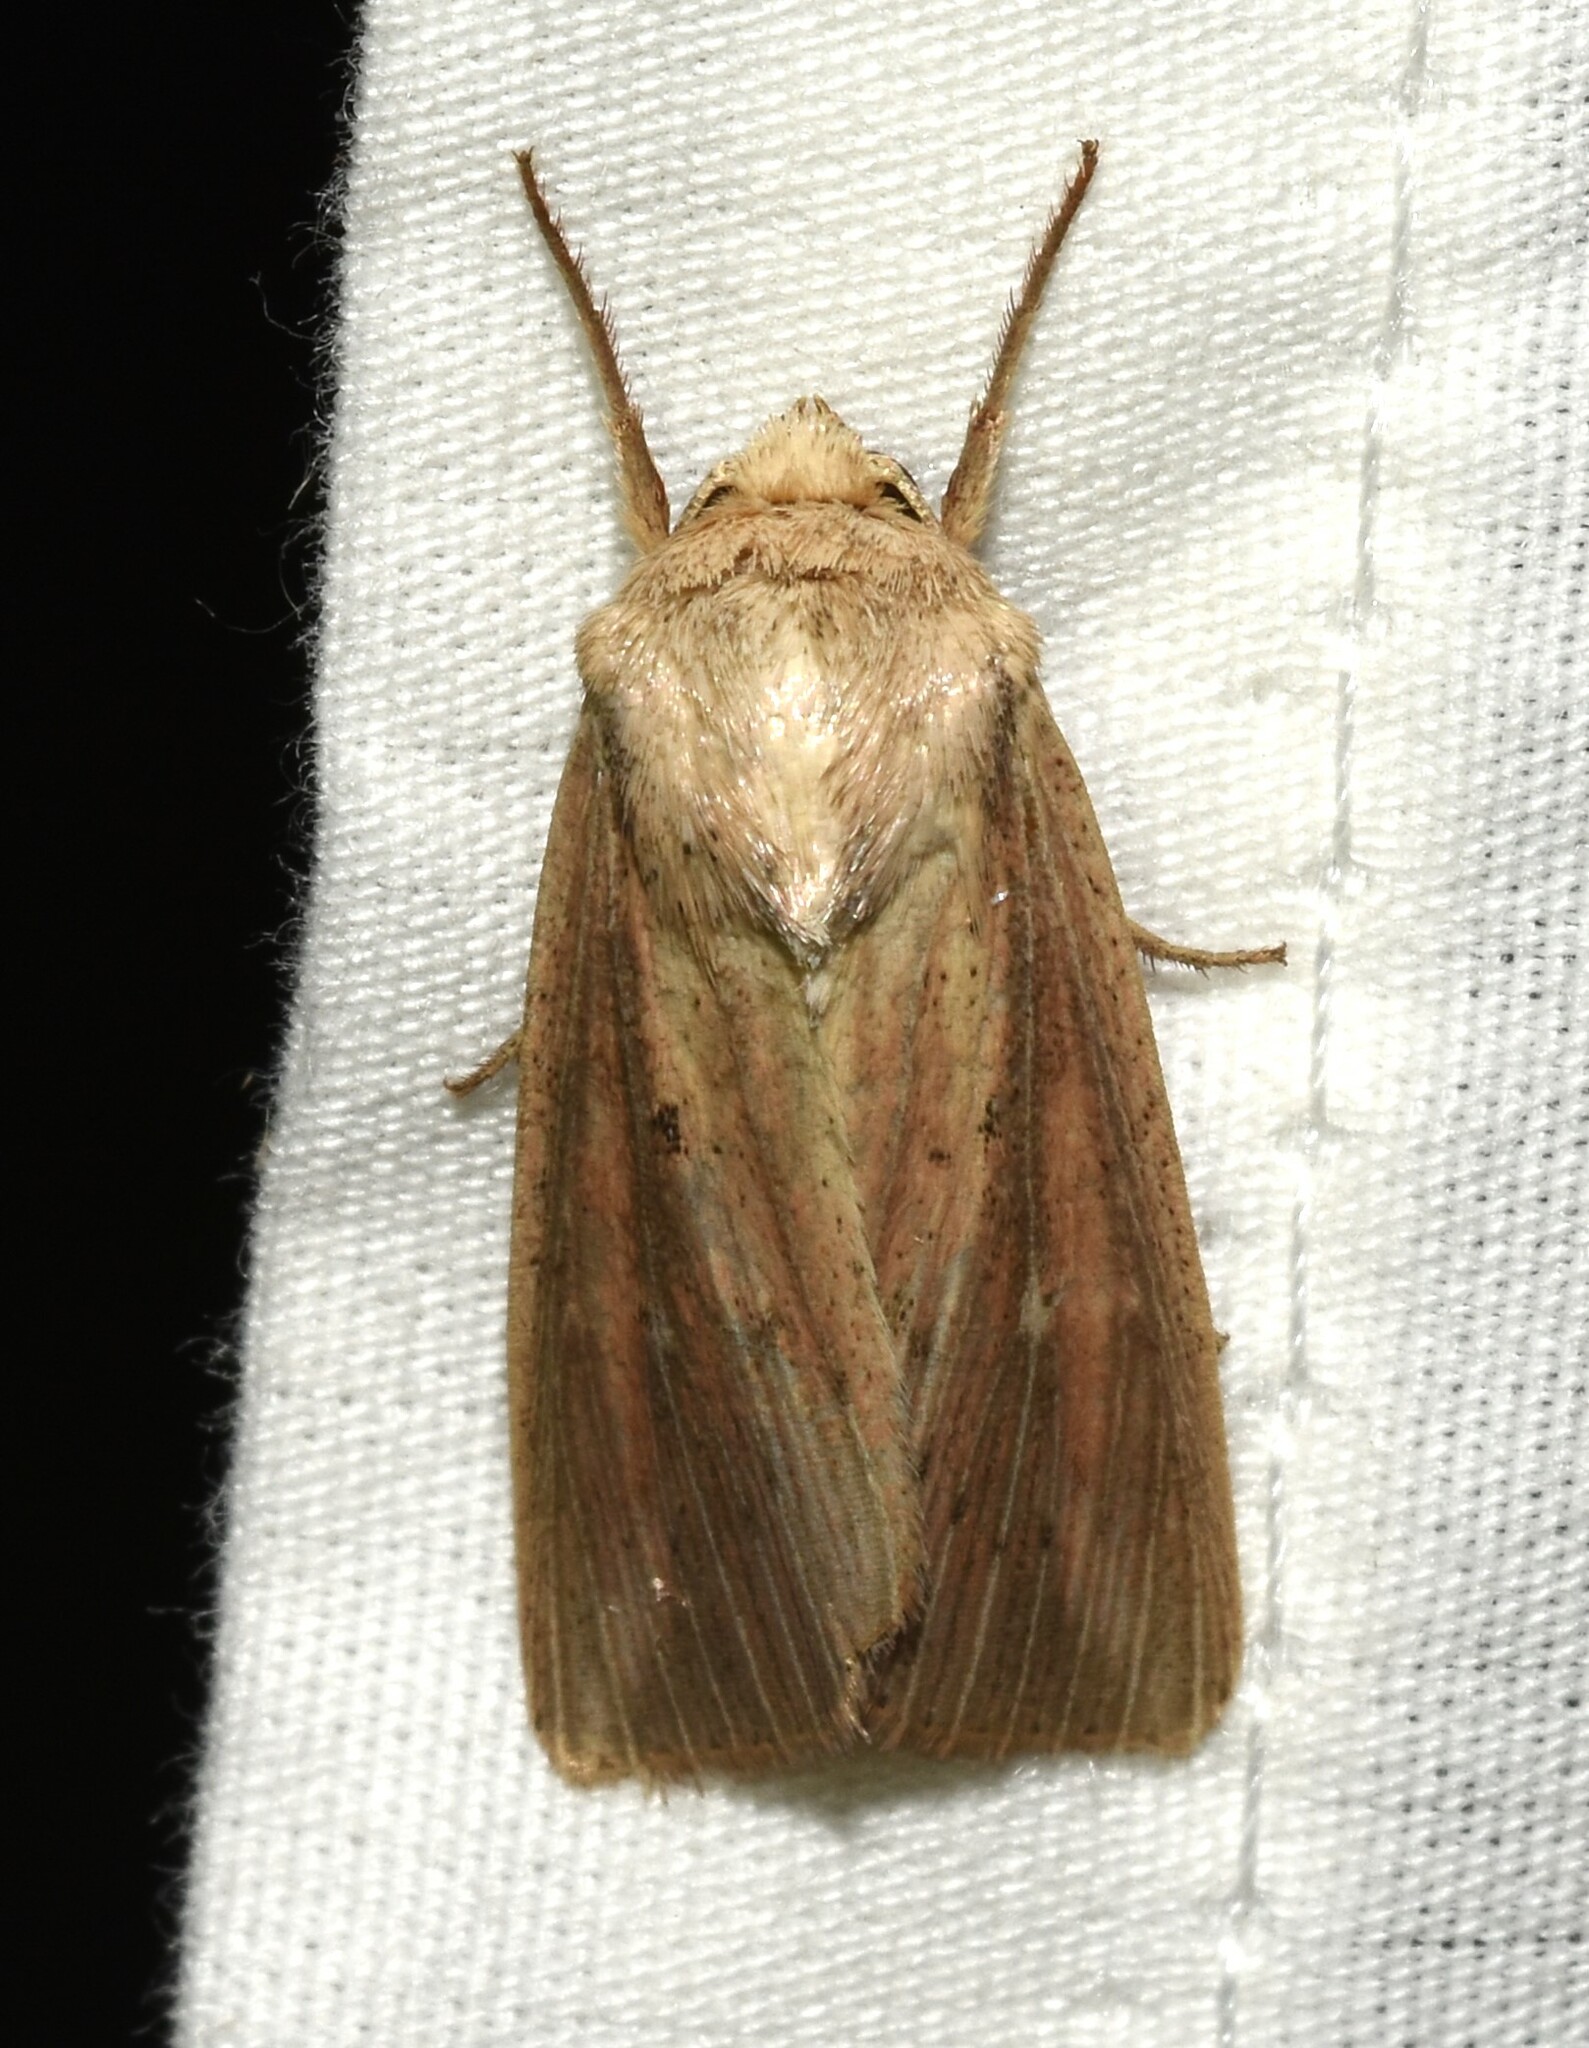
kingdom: Animalia
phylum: Arthropoda
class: Insecta
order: Lepidoptera
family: Noctuidae
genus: Leucania
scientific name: Leucania linda
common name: Linda's wainscot
